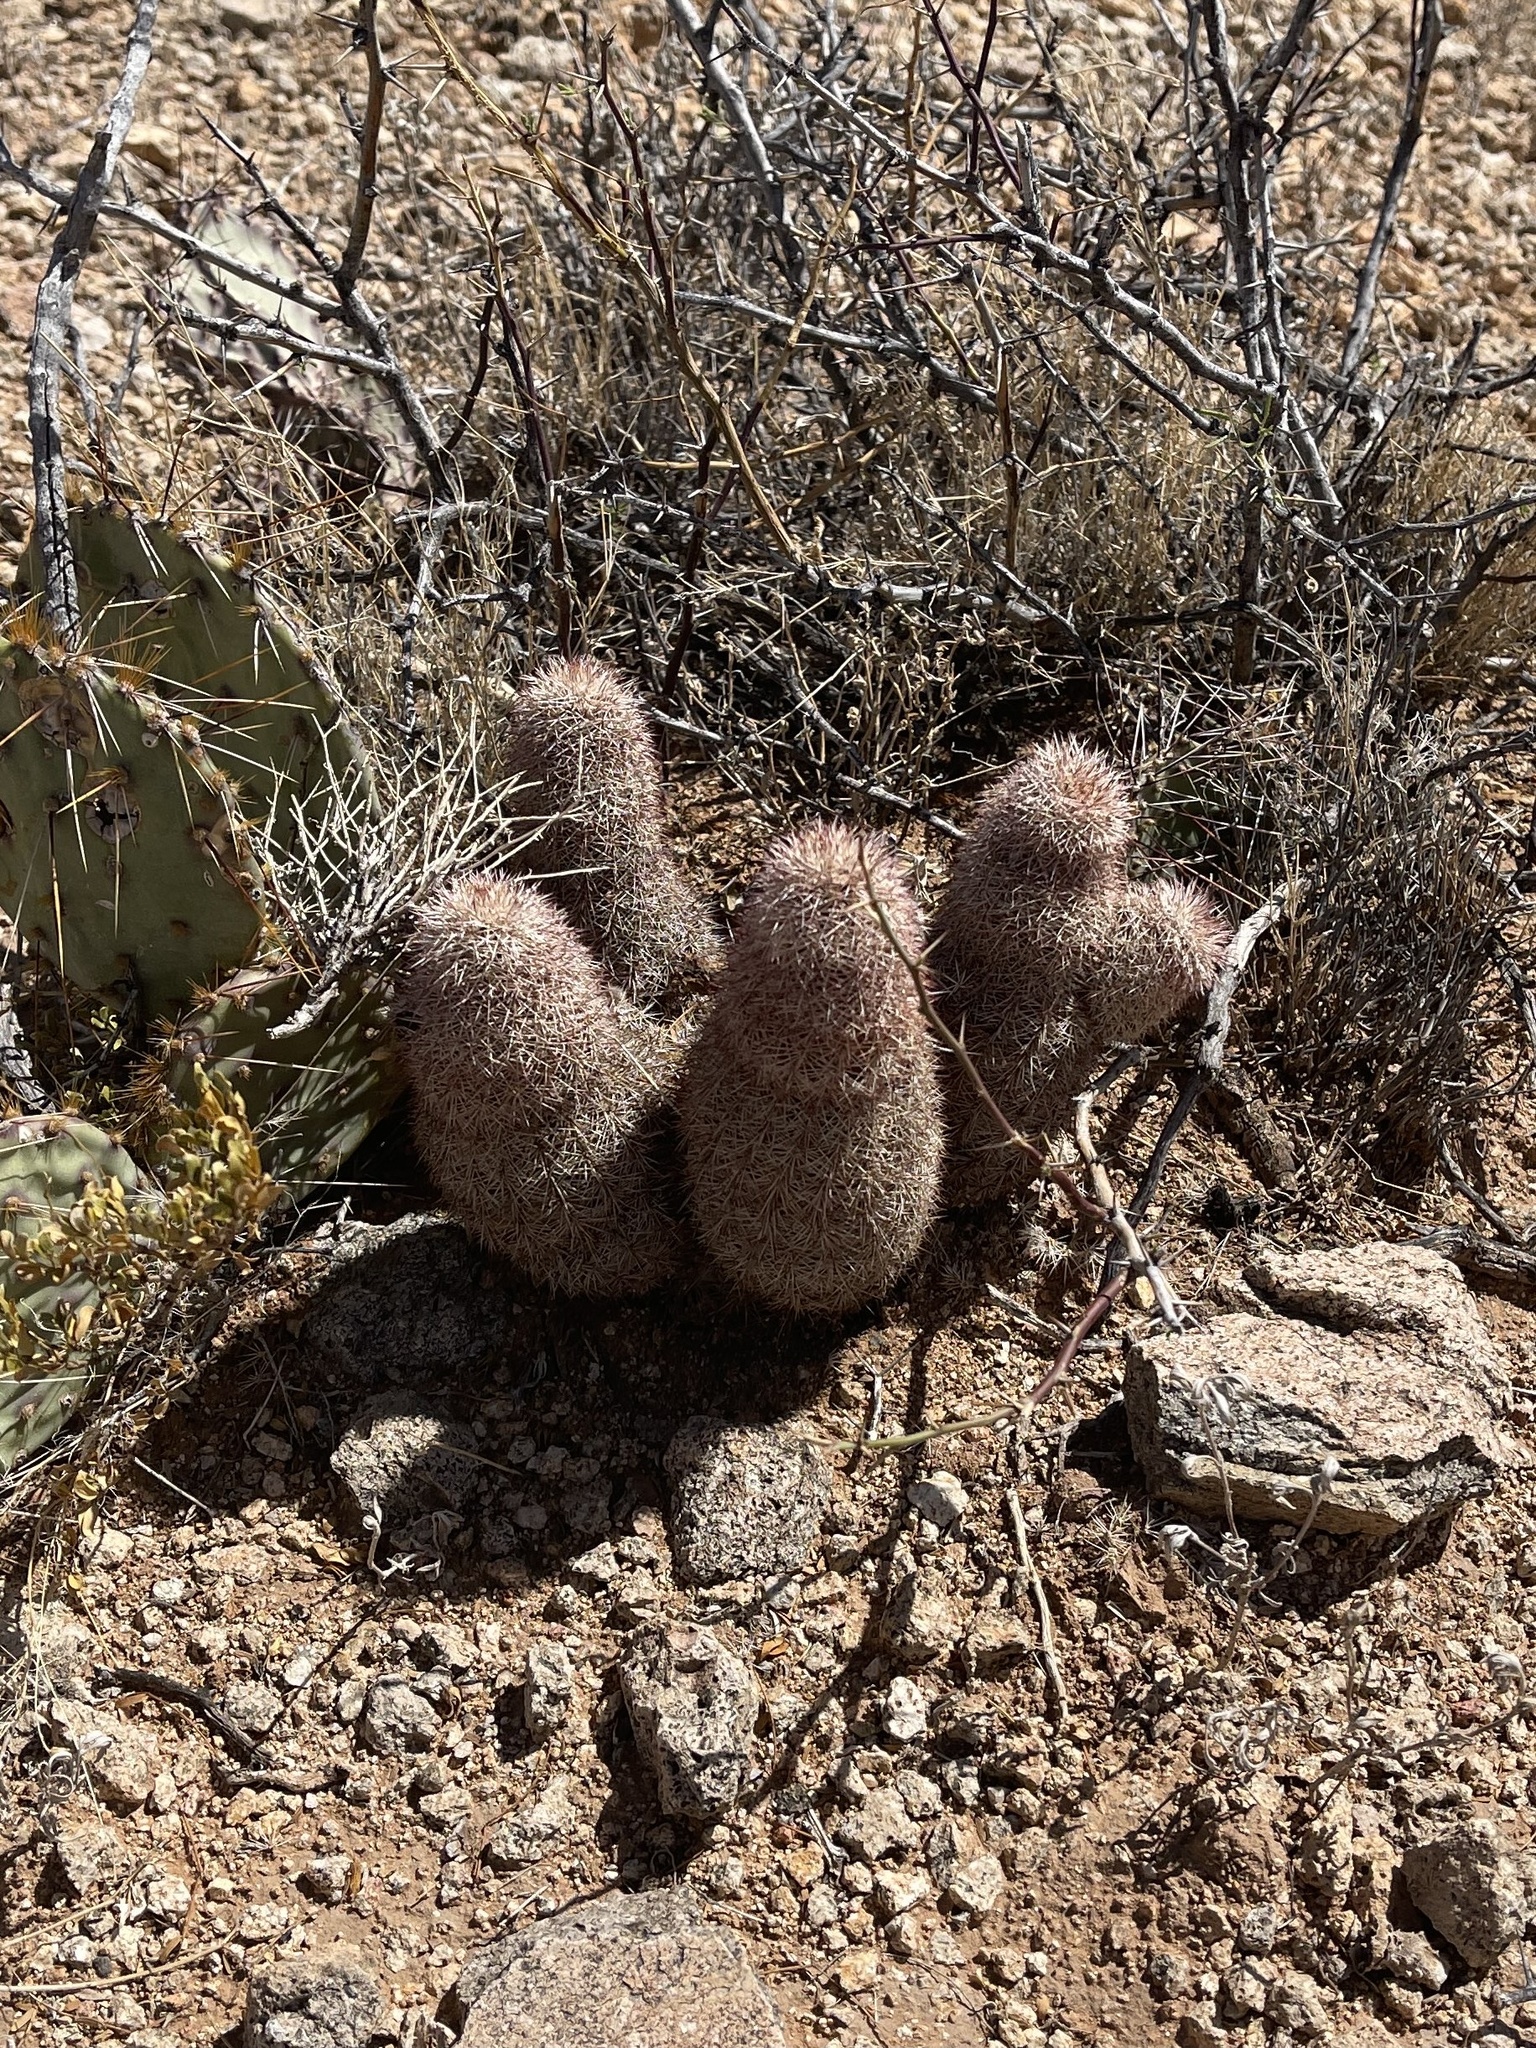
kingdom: Plantae
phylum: Tracheophyta
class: Magnoliopsida
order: Caryophyllales
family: Cactaceae
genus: Echinocereus
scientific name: Echinocereus dasyacanthus
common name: Spiny hedgehog cactus
